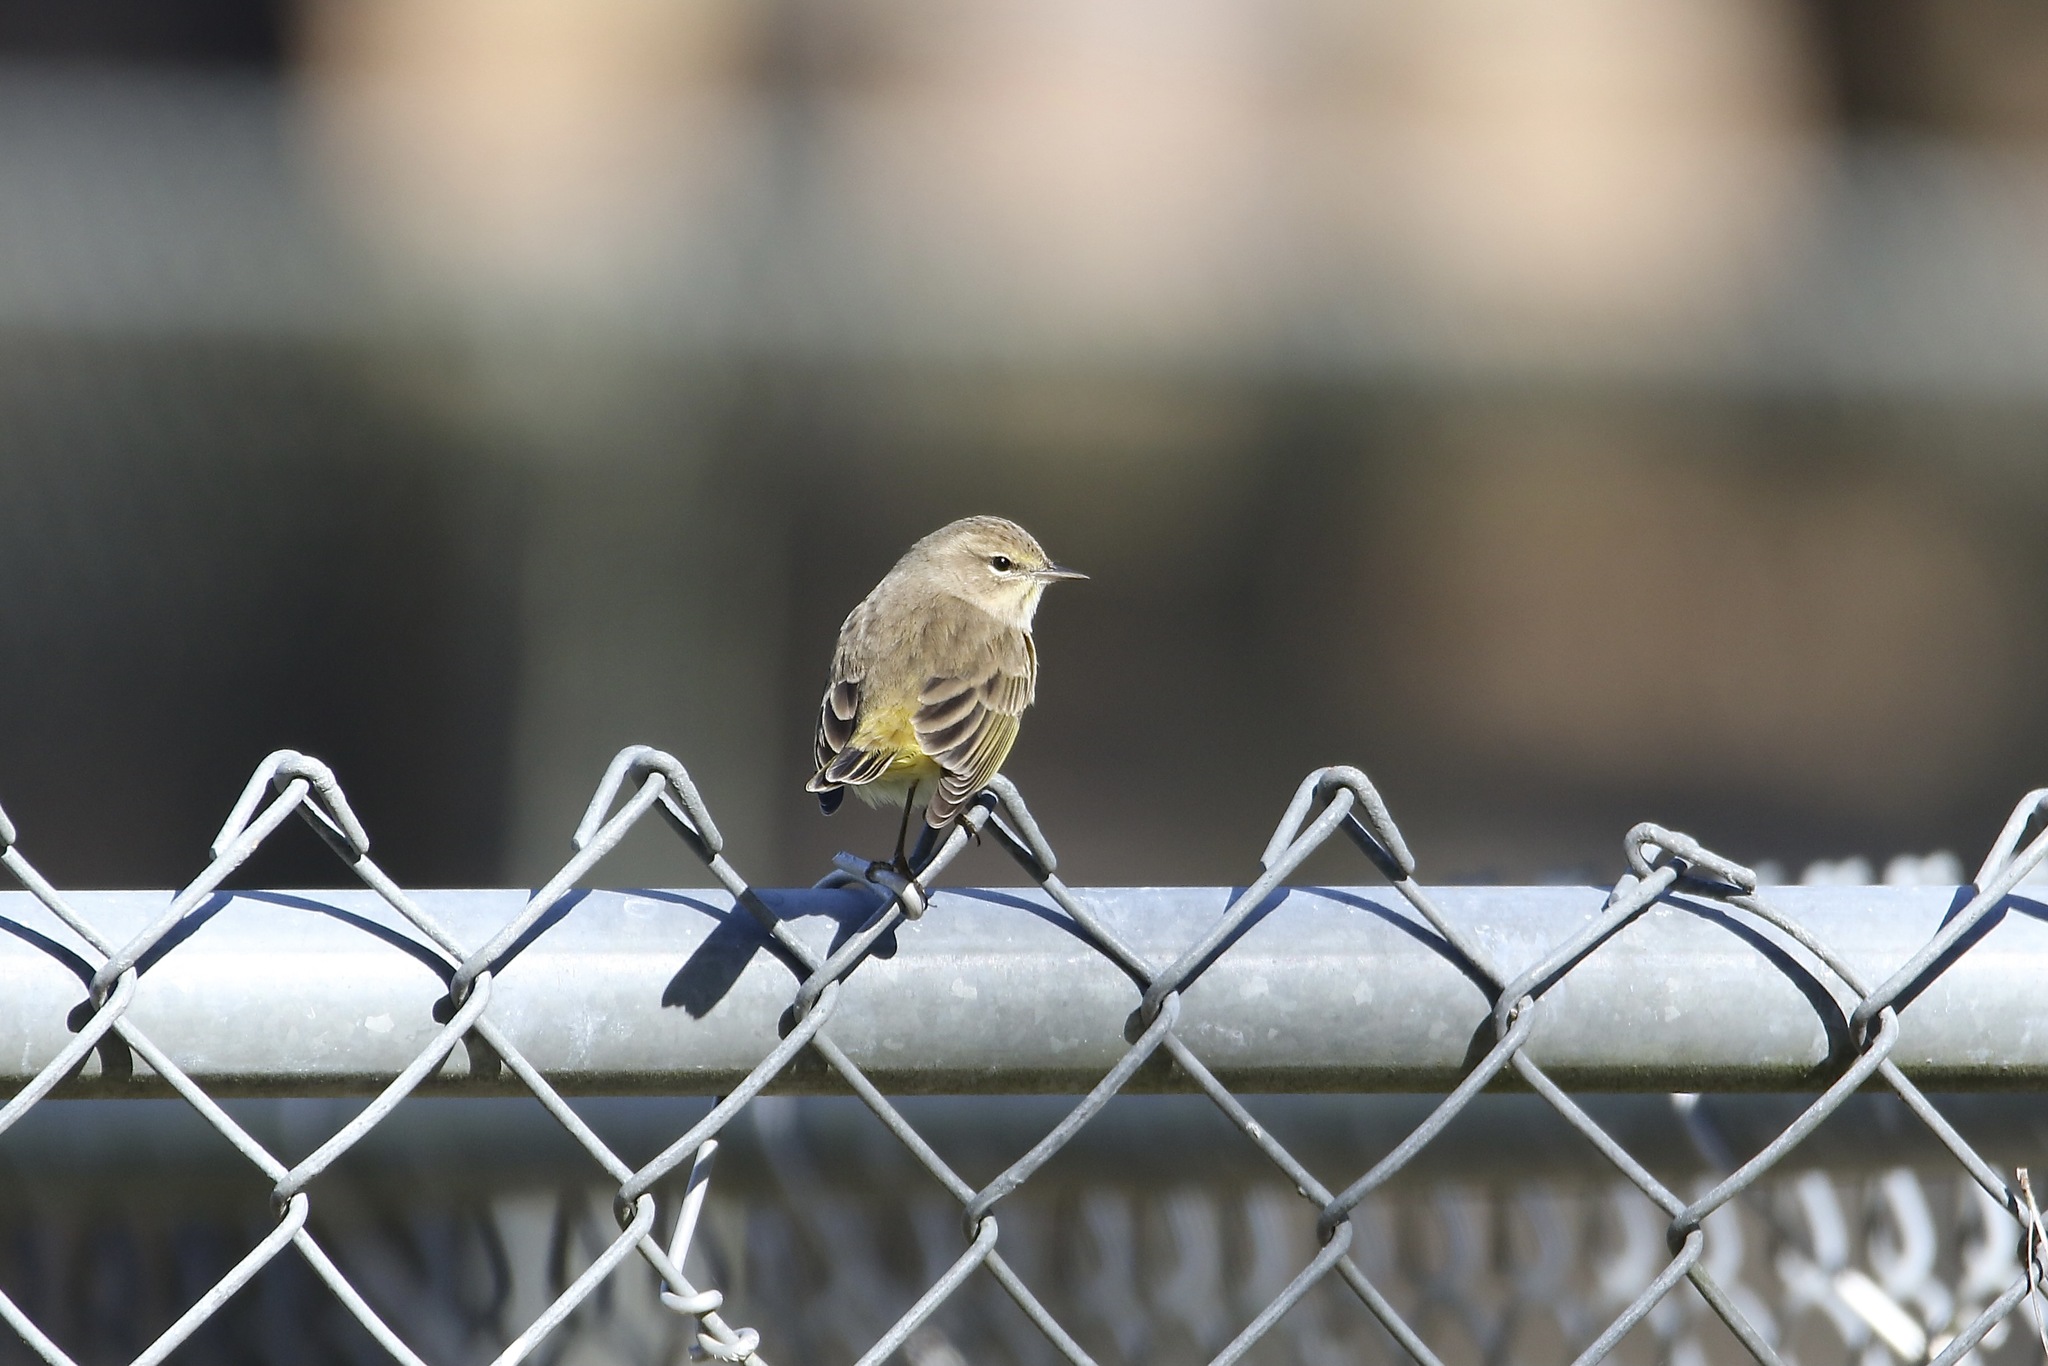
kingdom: Animalia
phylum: Chordata
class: Aves
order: Passeriformes
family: Parulidae
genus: Setophaga
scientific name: Setophaga palmarum
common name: Palm warbler
